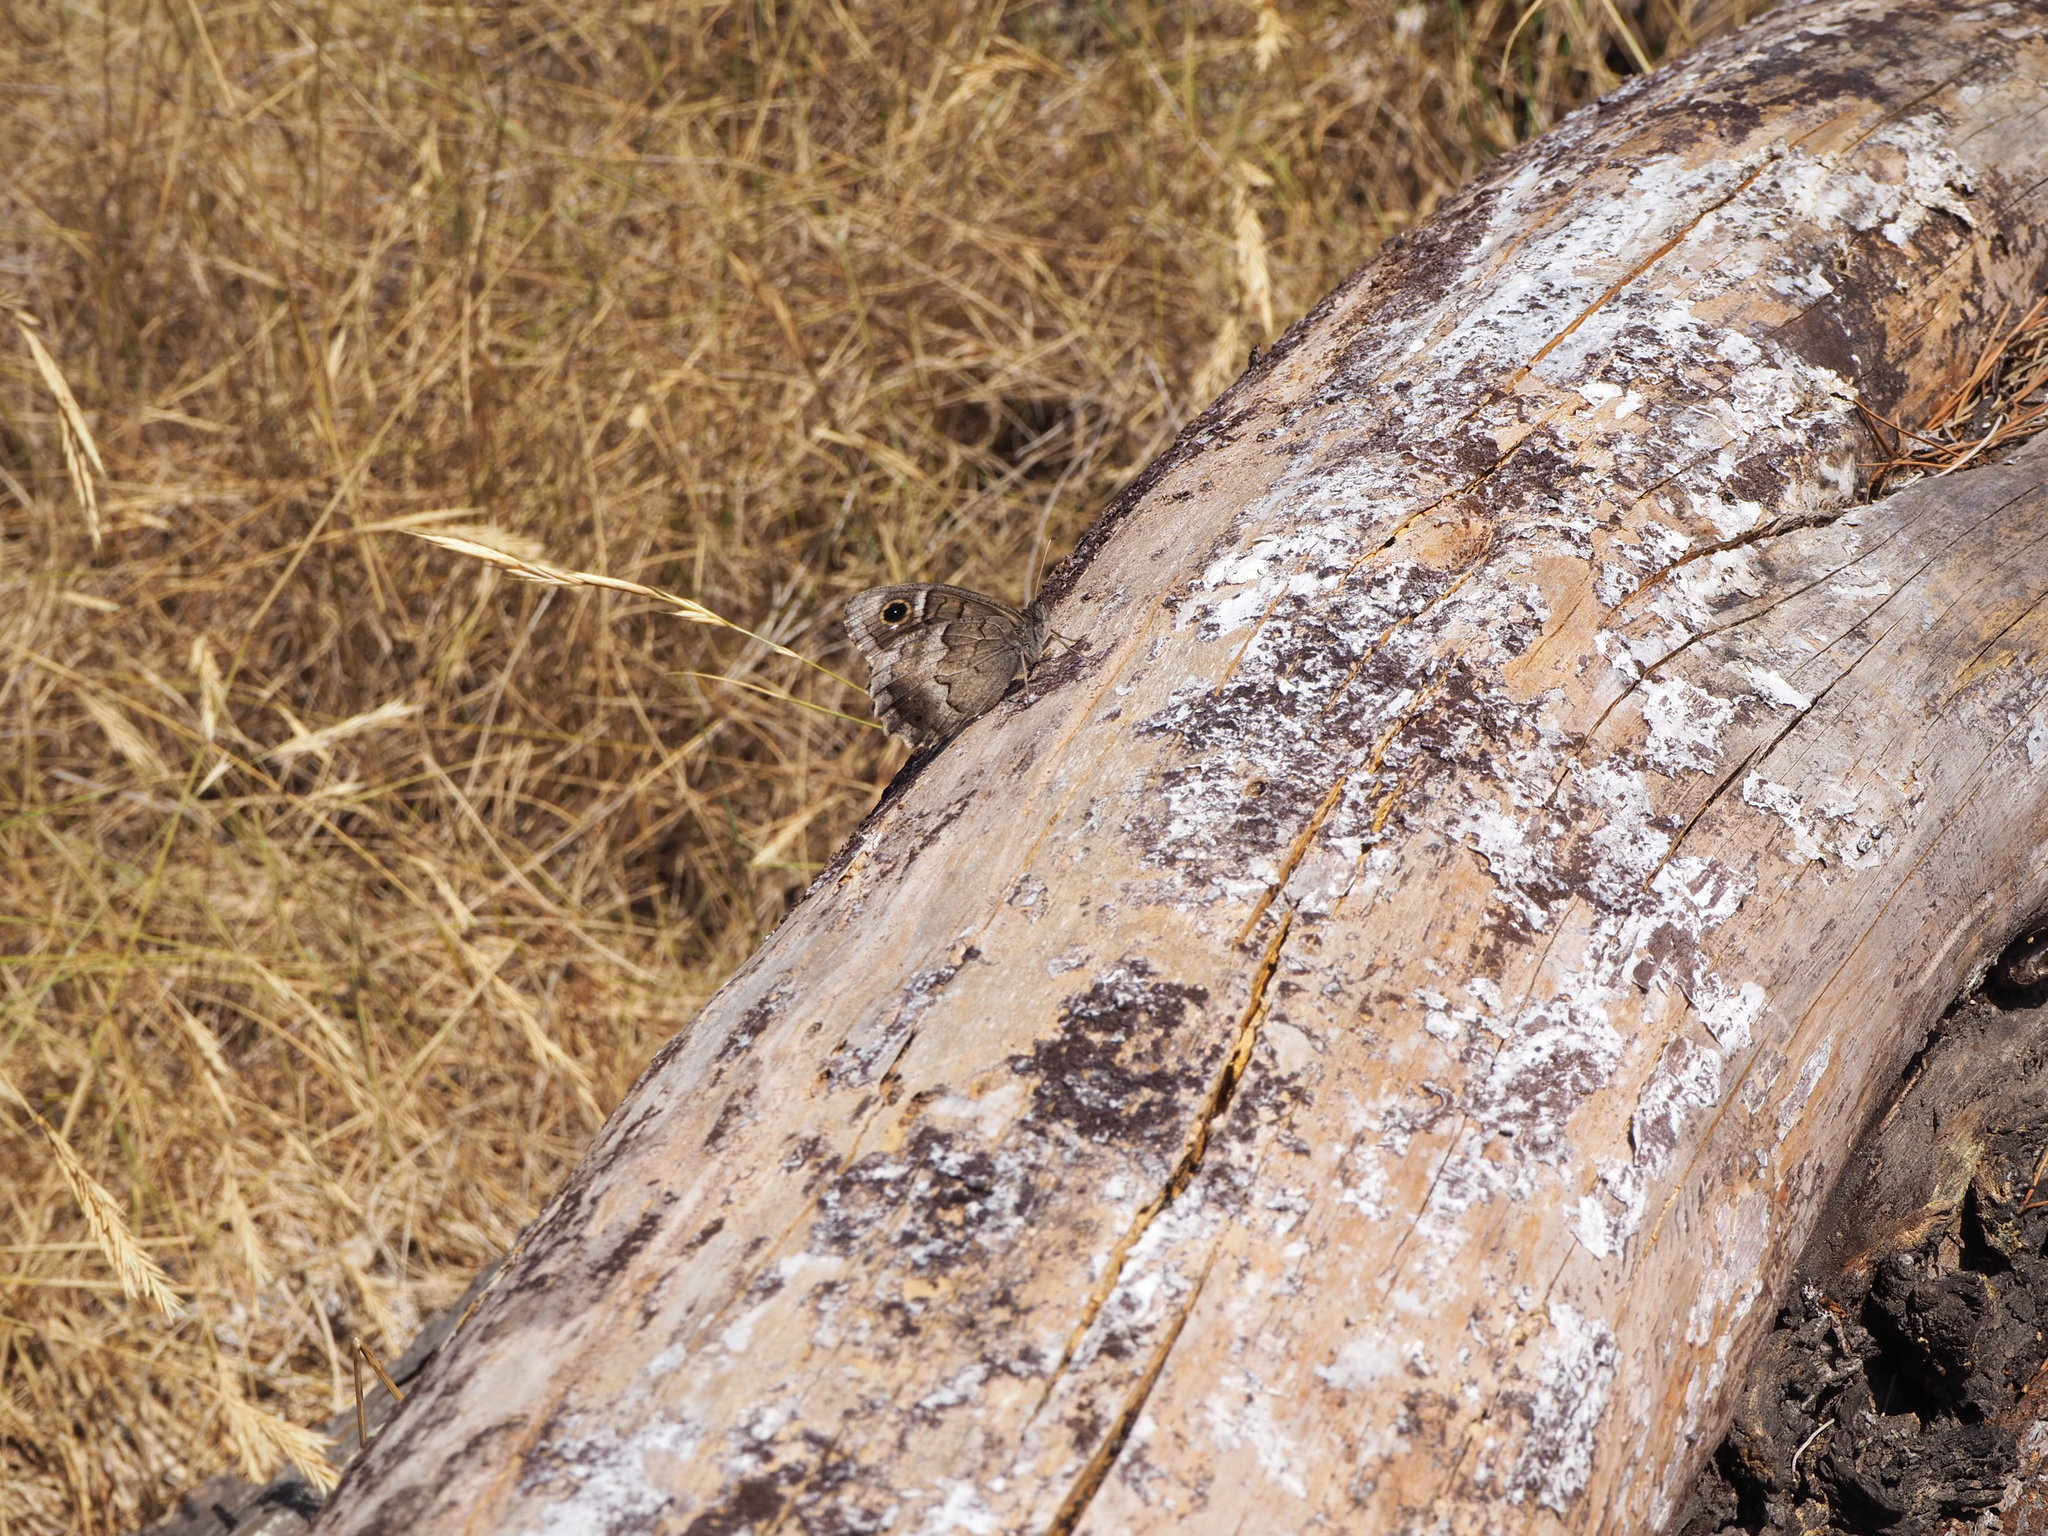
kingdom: Animalia
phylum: Arthropoda
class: Insecta
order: Lepidoptera
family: Nymphalidae
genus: Hipparchia
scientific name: Hipparchia statilinus
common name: Tree grayling
